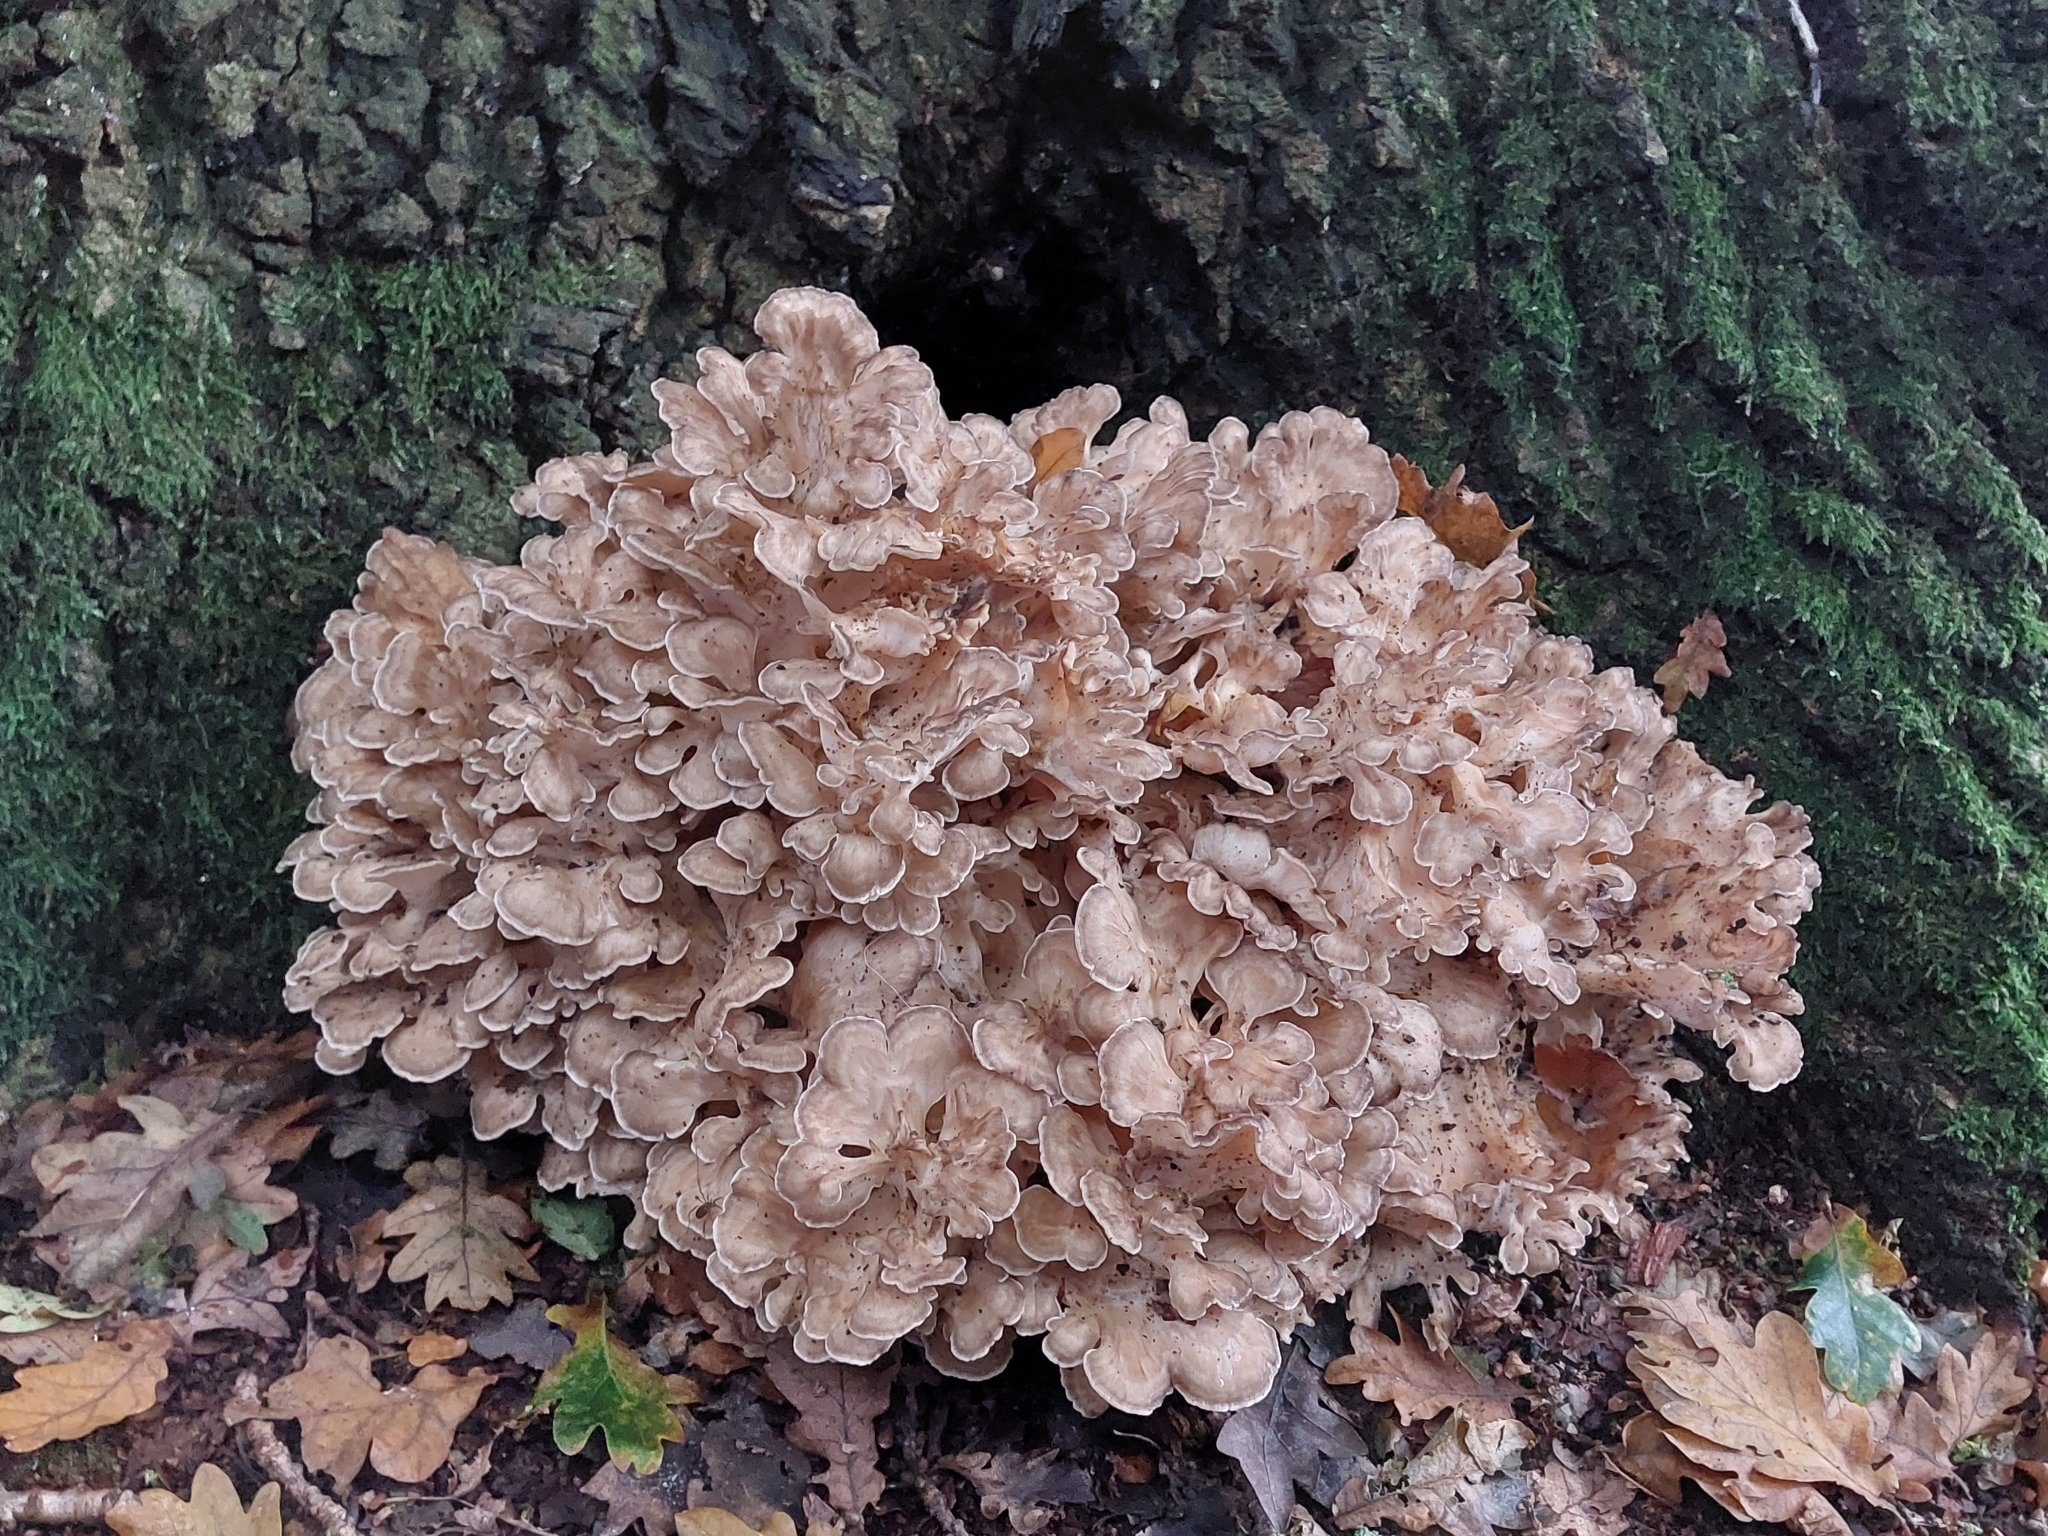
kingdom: Fungi
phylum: Basidiomycota
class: Agaricomycetes
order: Polyporales
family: Grifolaceae
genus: Grifola
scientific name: Grifola frondosa
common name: Hen of the woods
